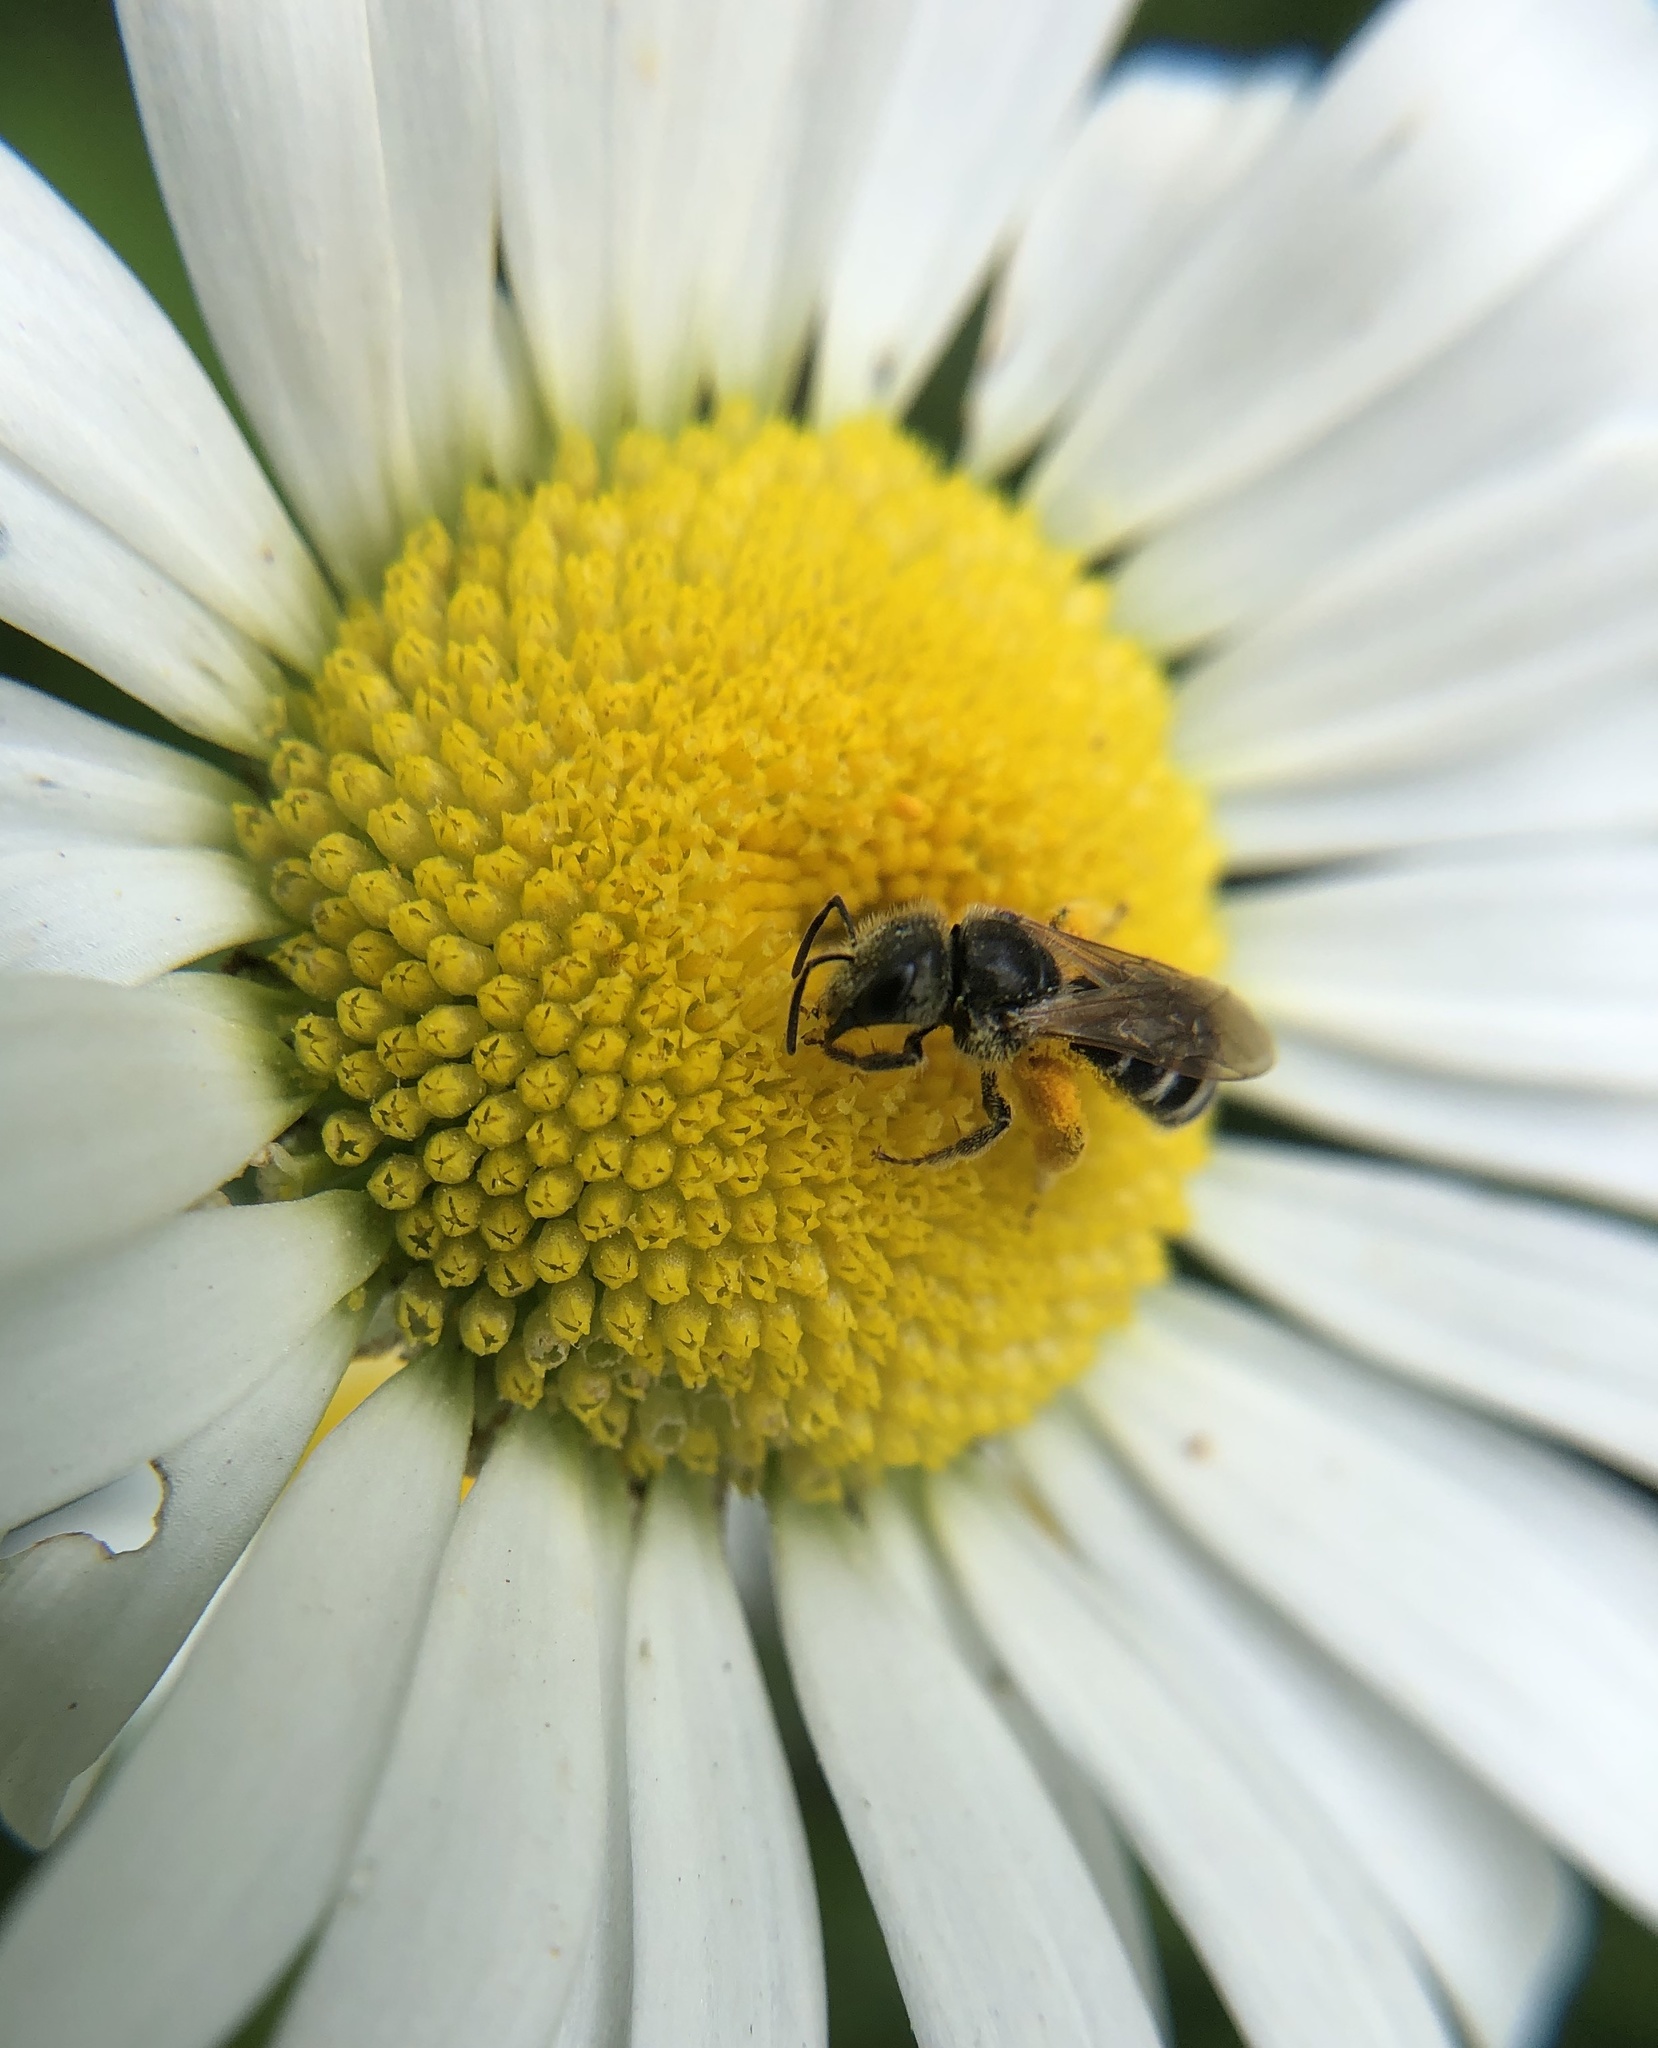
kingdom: Animalia
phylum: Arthropoda
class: Insecta
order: Hymenoptera
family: Halictidae
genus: Halictus
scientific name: Halictus ligatus
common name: Ligated furrow bee
